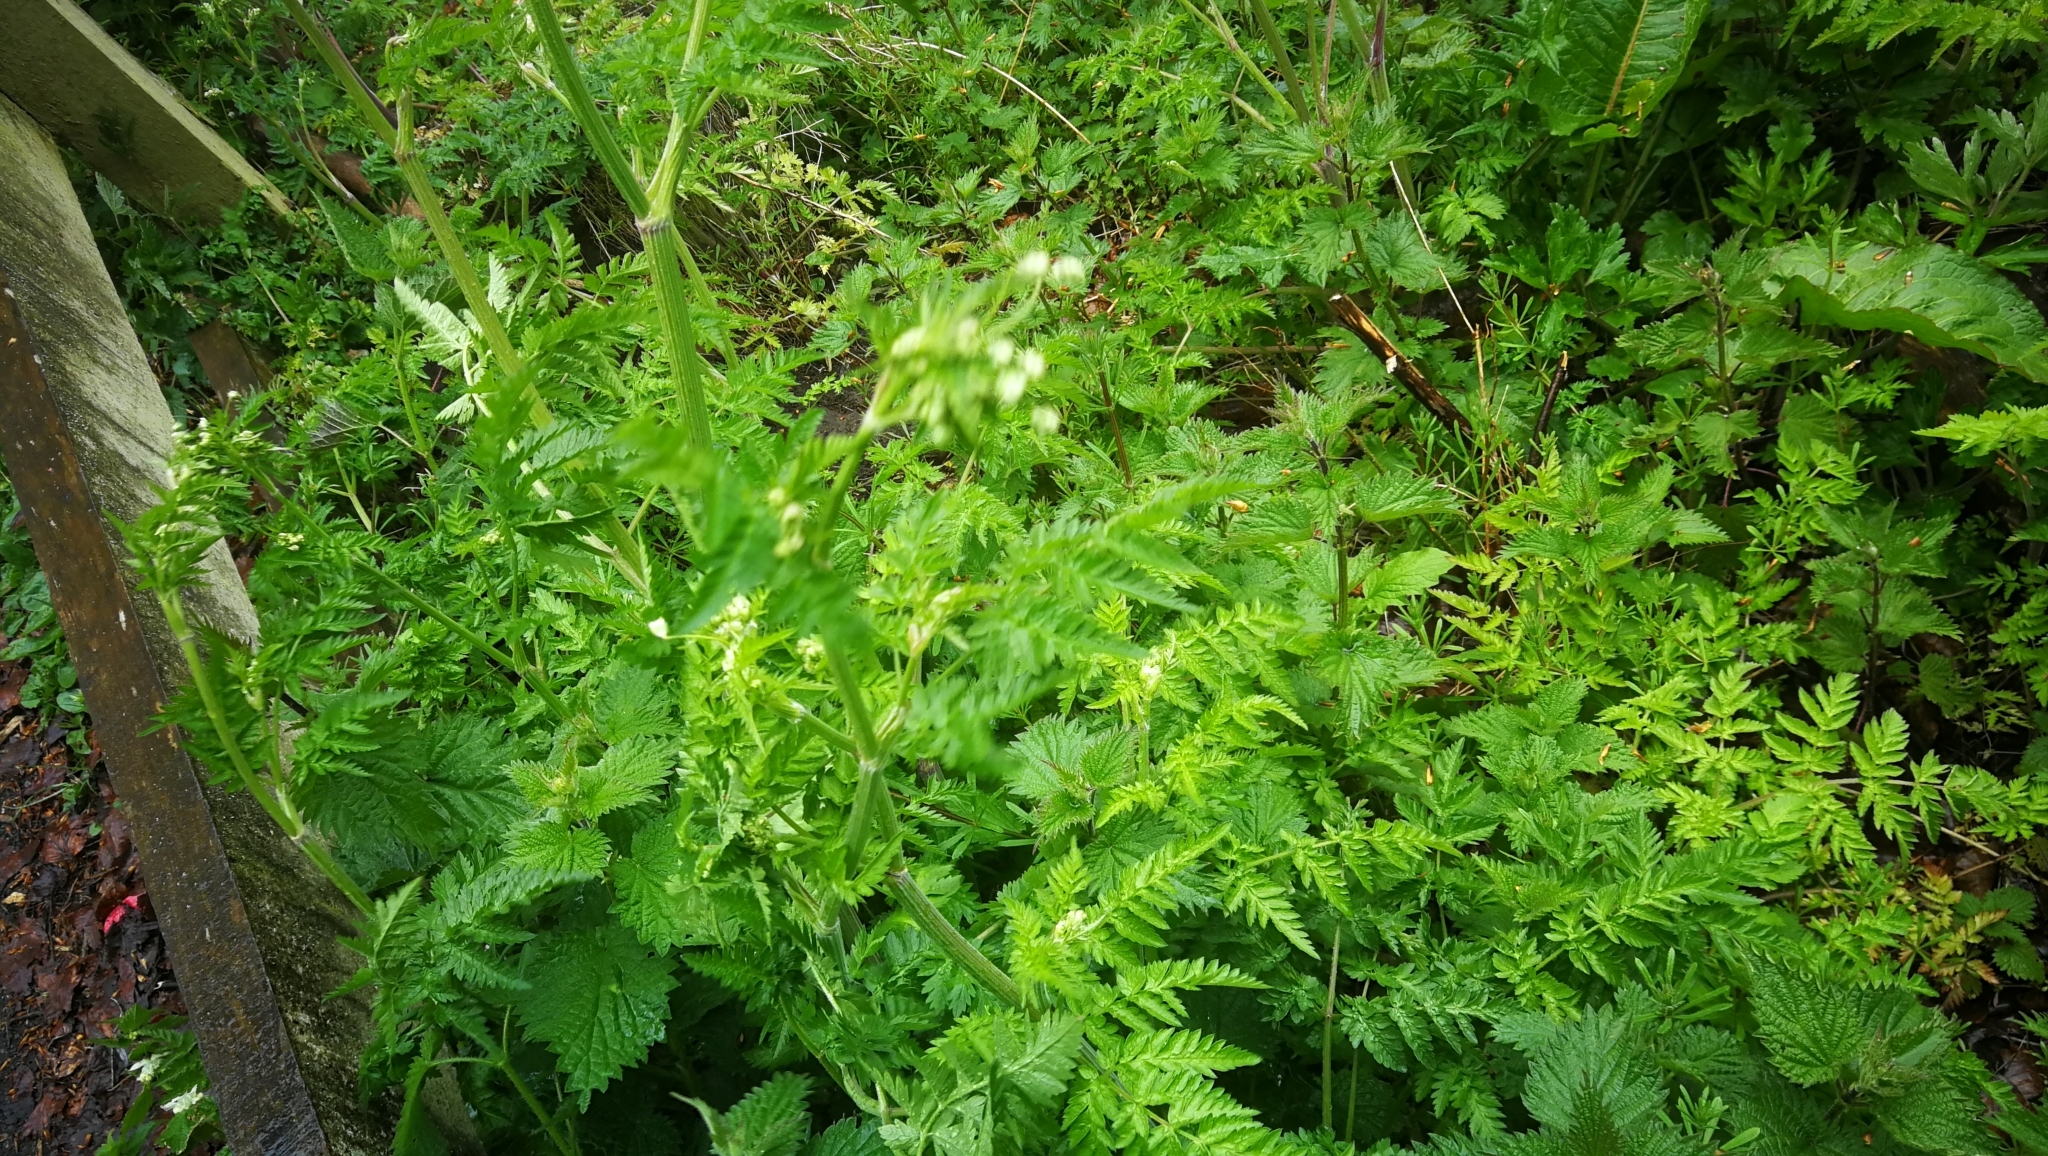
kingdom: Plantae
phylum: Tracheophyta
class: Magnoliopsida
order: Apiales
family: Apiaceae
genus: Anthriscus
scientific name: Anthriscus sylvestris
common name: Cow parsley
